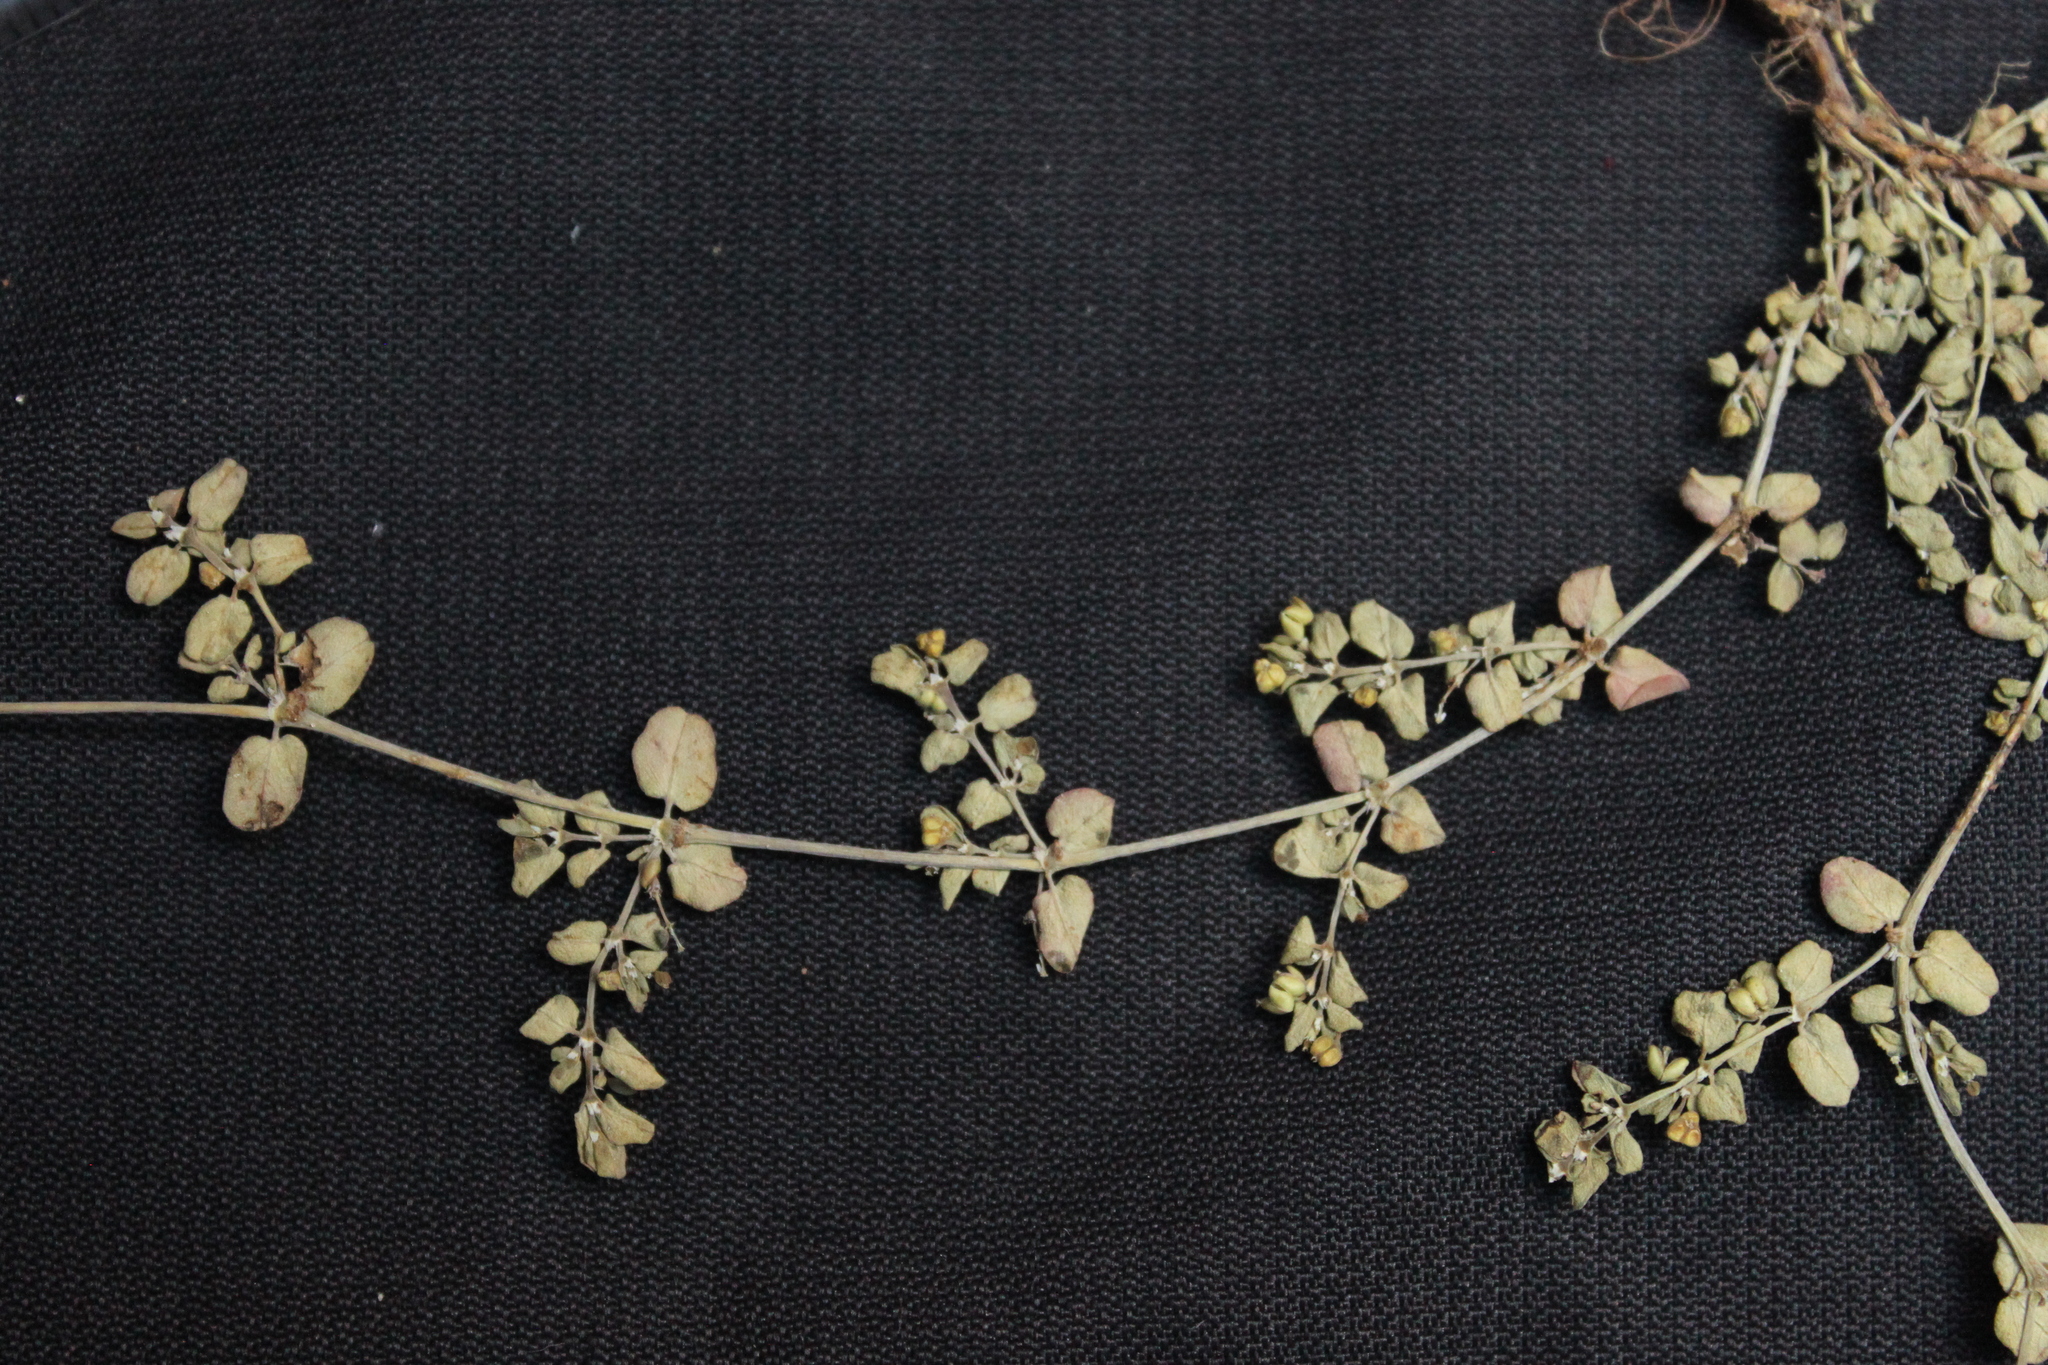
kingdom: Plantae
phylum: Tracheophyta
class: Magnoliopsida
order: Malpighiales
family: Euphorbiaceae
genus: Euphorbia
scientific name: Euphorbia serpens
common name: Matted sandmat
